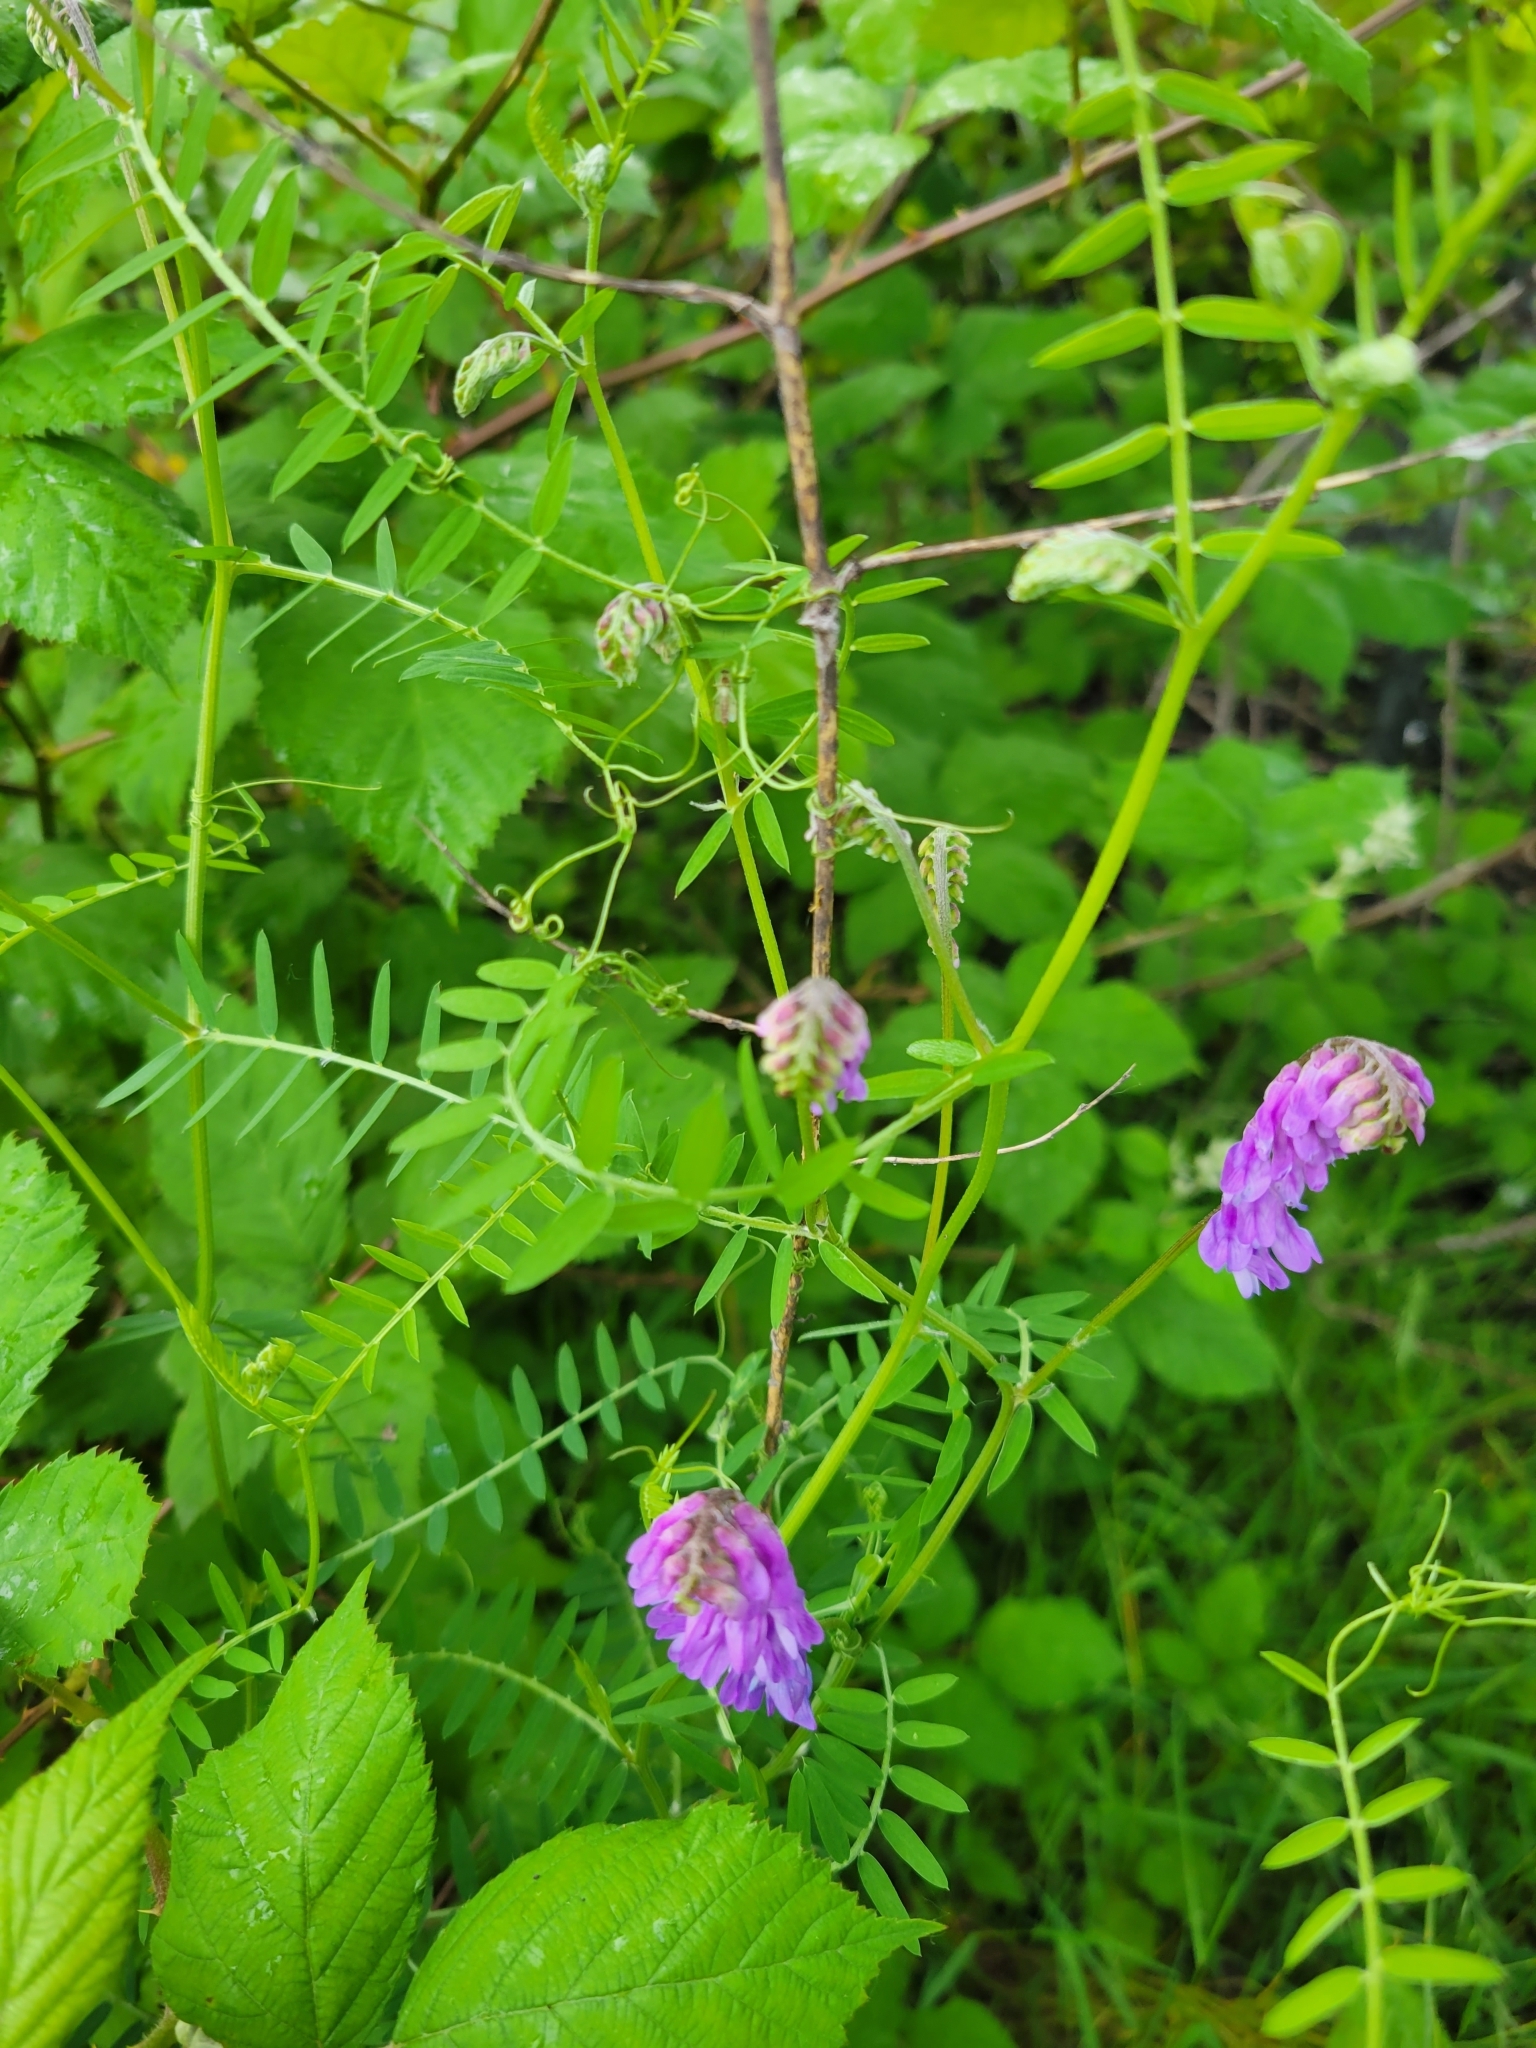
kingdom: Plantae
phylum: Tracheophyta
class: Magnoliopsida
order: Fabales
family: Fabaceae
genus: Vicia
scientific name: Vicia cracca
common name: Bird vetch
